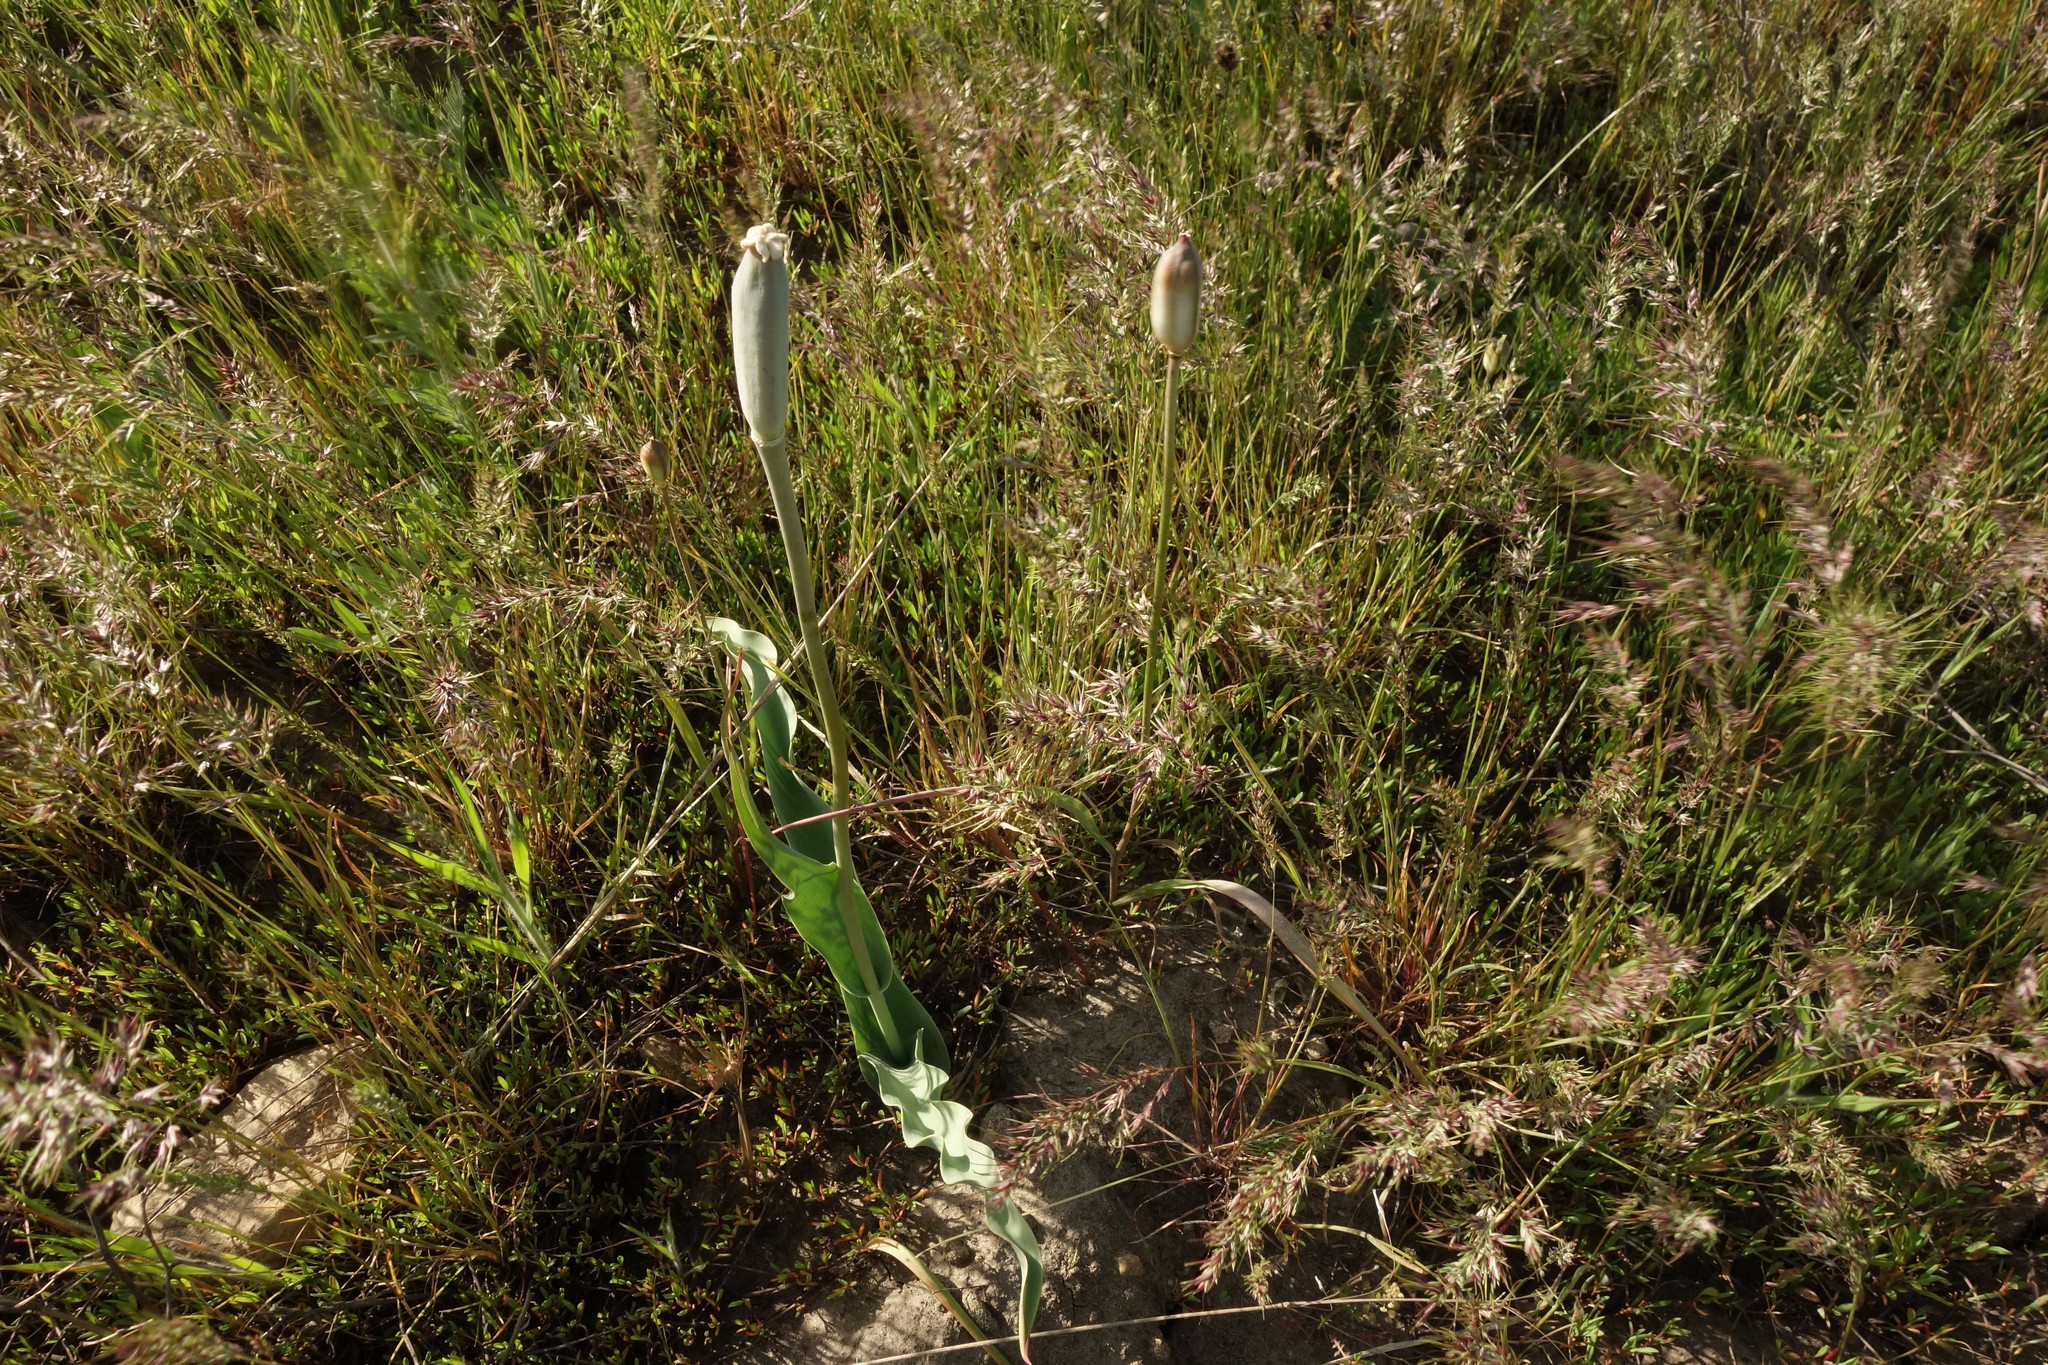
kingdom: Plantae
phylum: Tracheophyta
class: Liliopsida
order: Liliales
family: Liliaceae
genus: Tulipa
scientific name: Tulipa suaveolens
